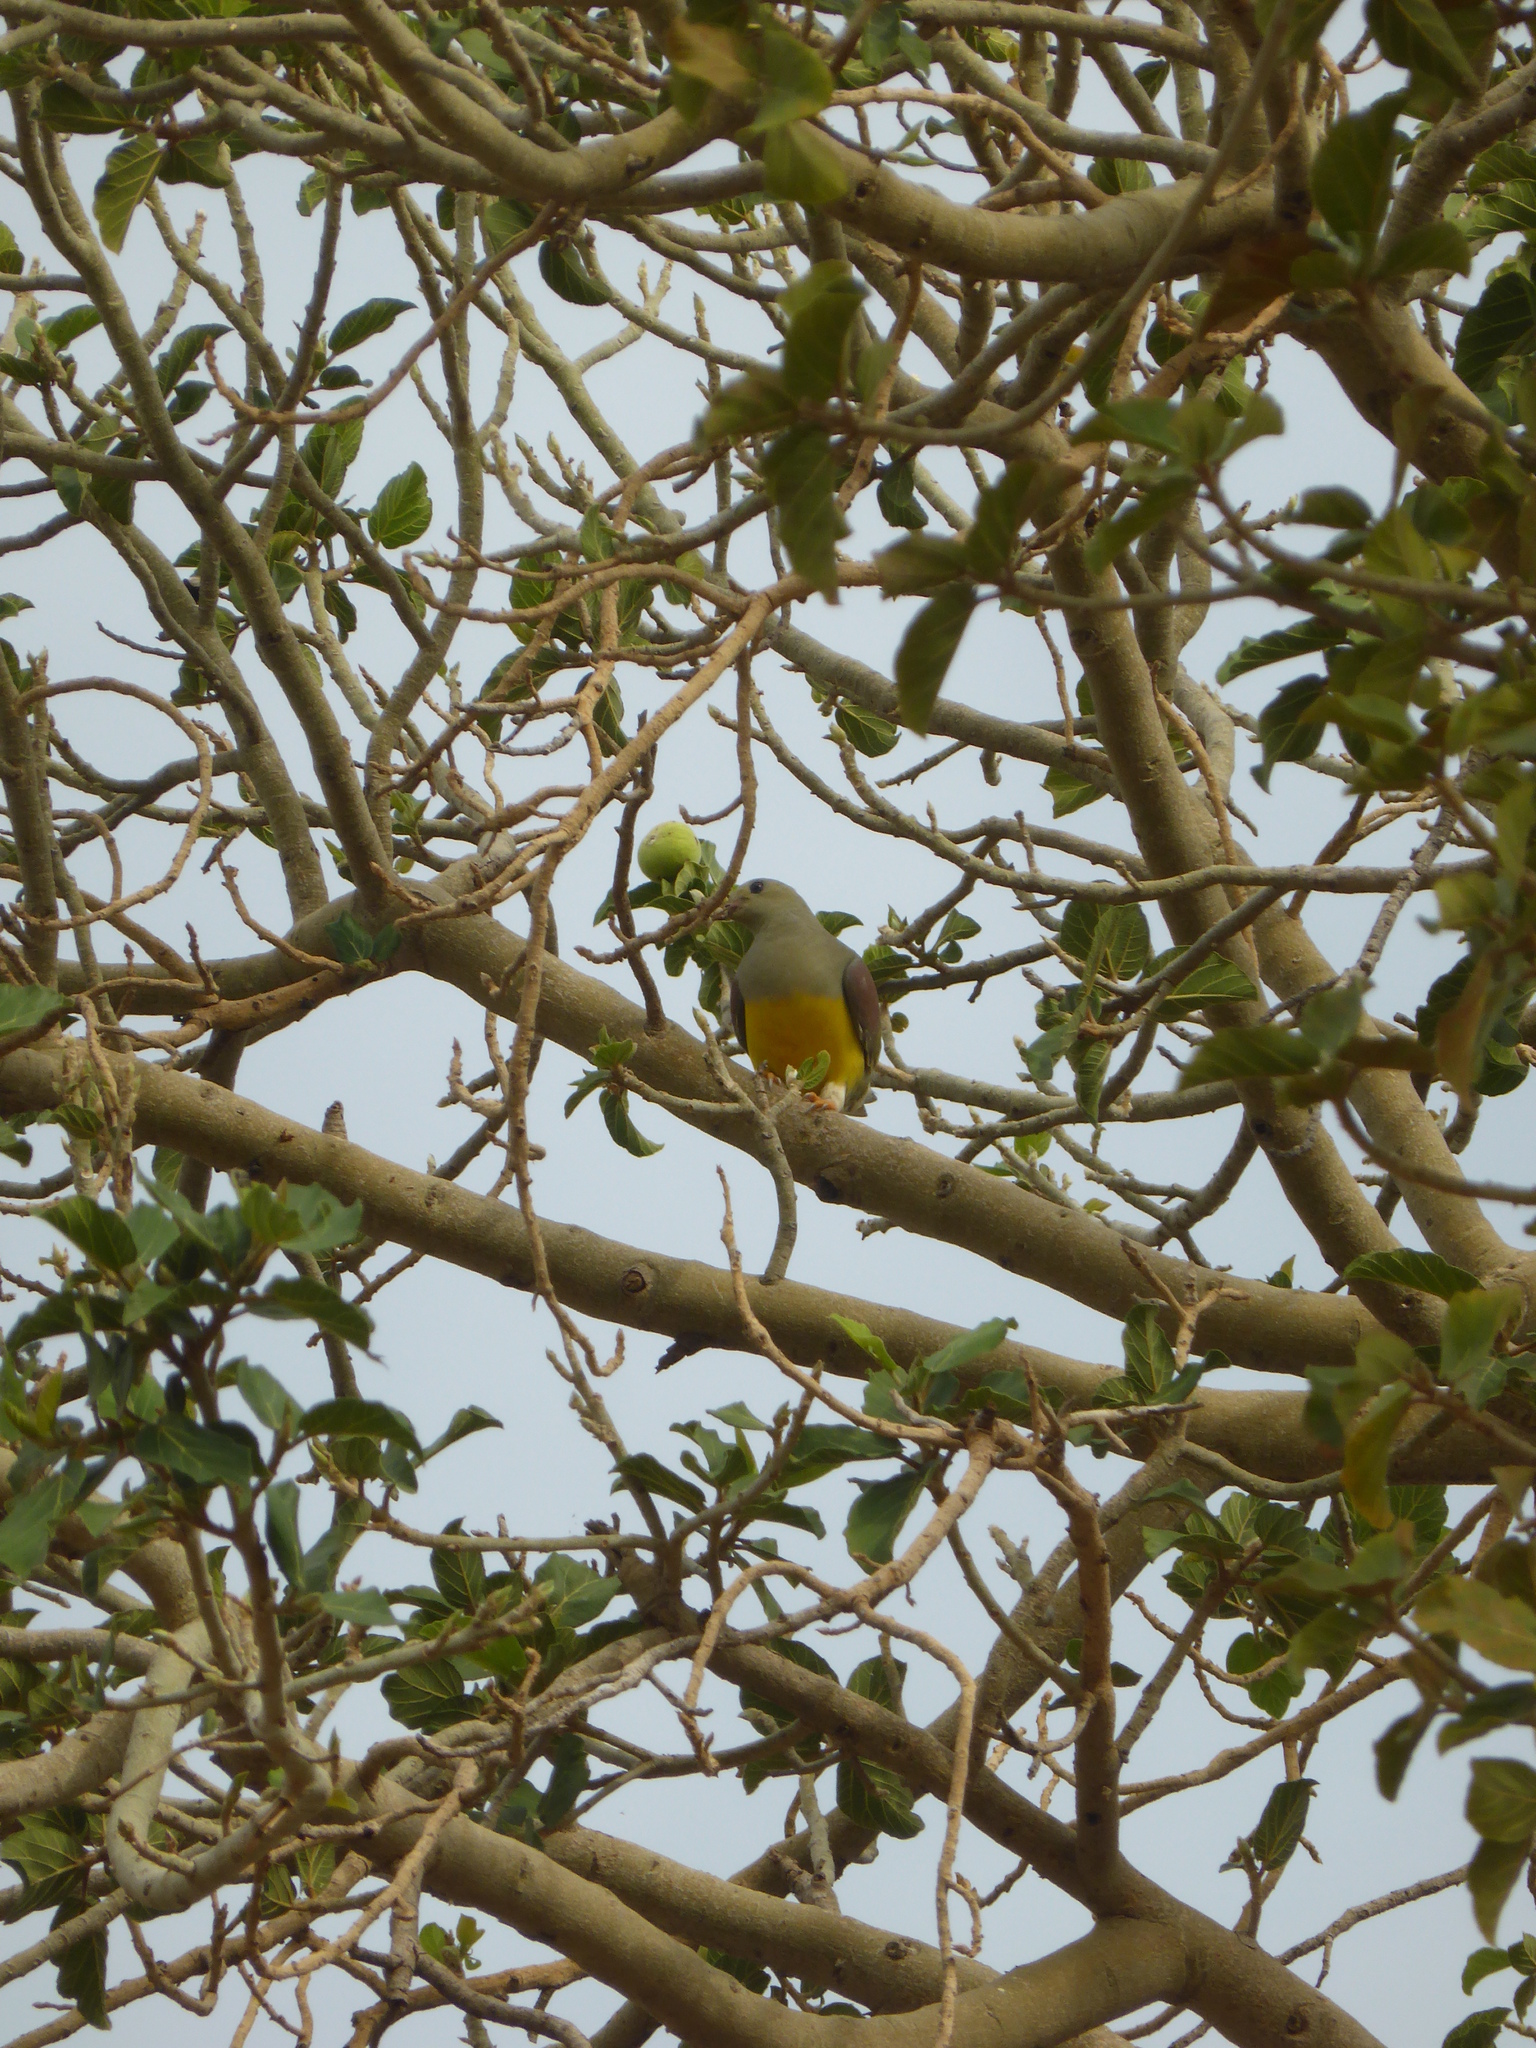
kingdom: Animalia
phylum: Chordata
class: Aves
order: Columbiformes
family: Columbidae
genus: Treron
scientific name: Treron waalia
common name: Bruce's green pigeon
